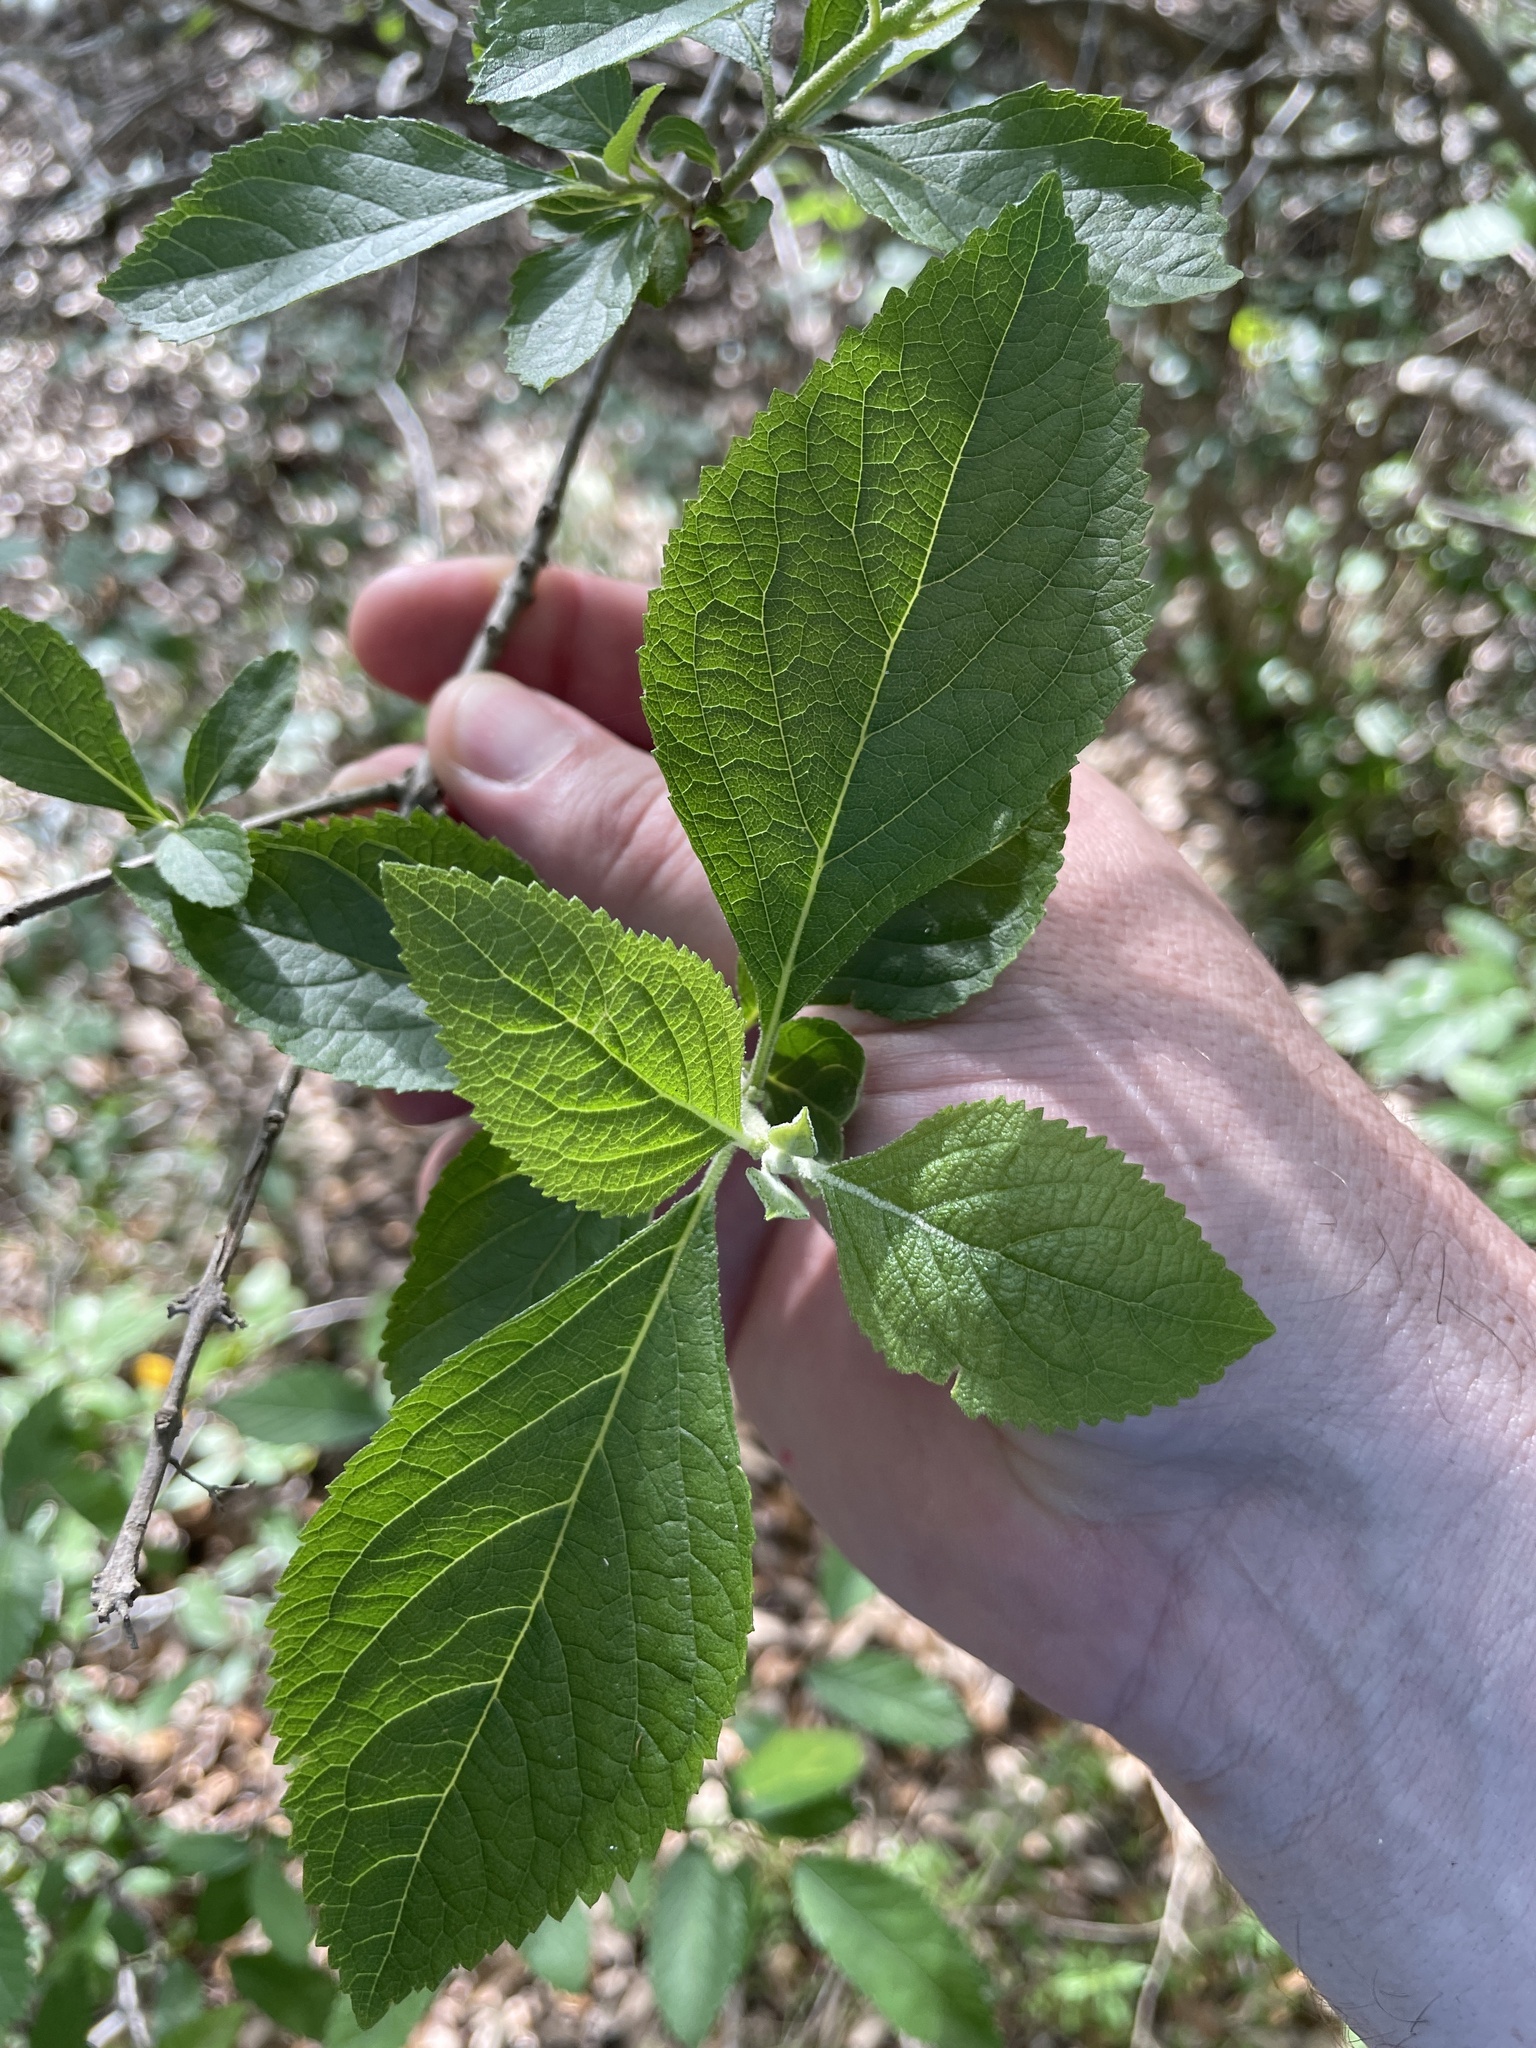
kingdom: Plantae
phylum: Tracheophyta
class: Magnoliopsida
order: Lamiales
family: Lamiaceae
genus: Callicarpa
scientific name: Callicarpa americana
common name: American beautyberry
